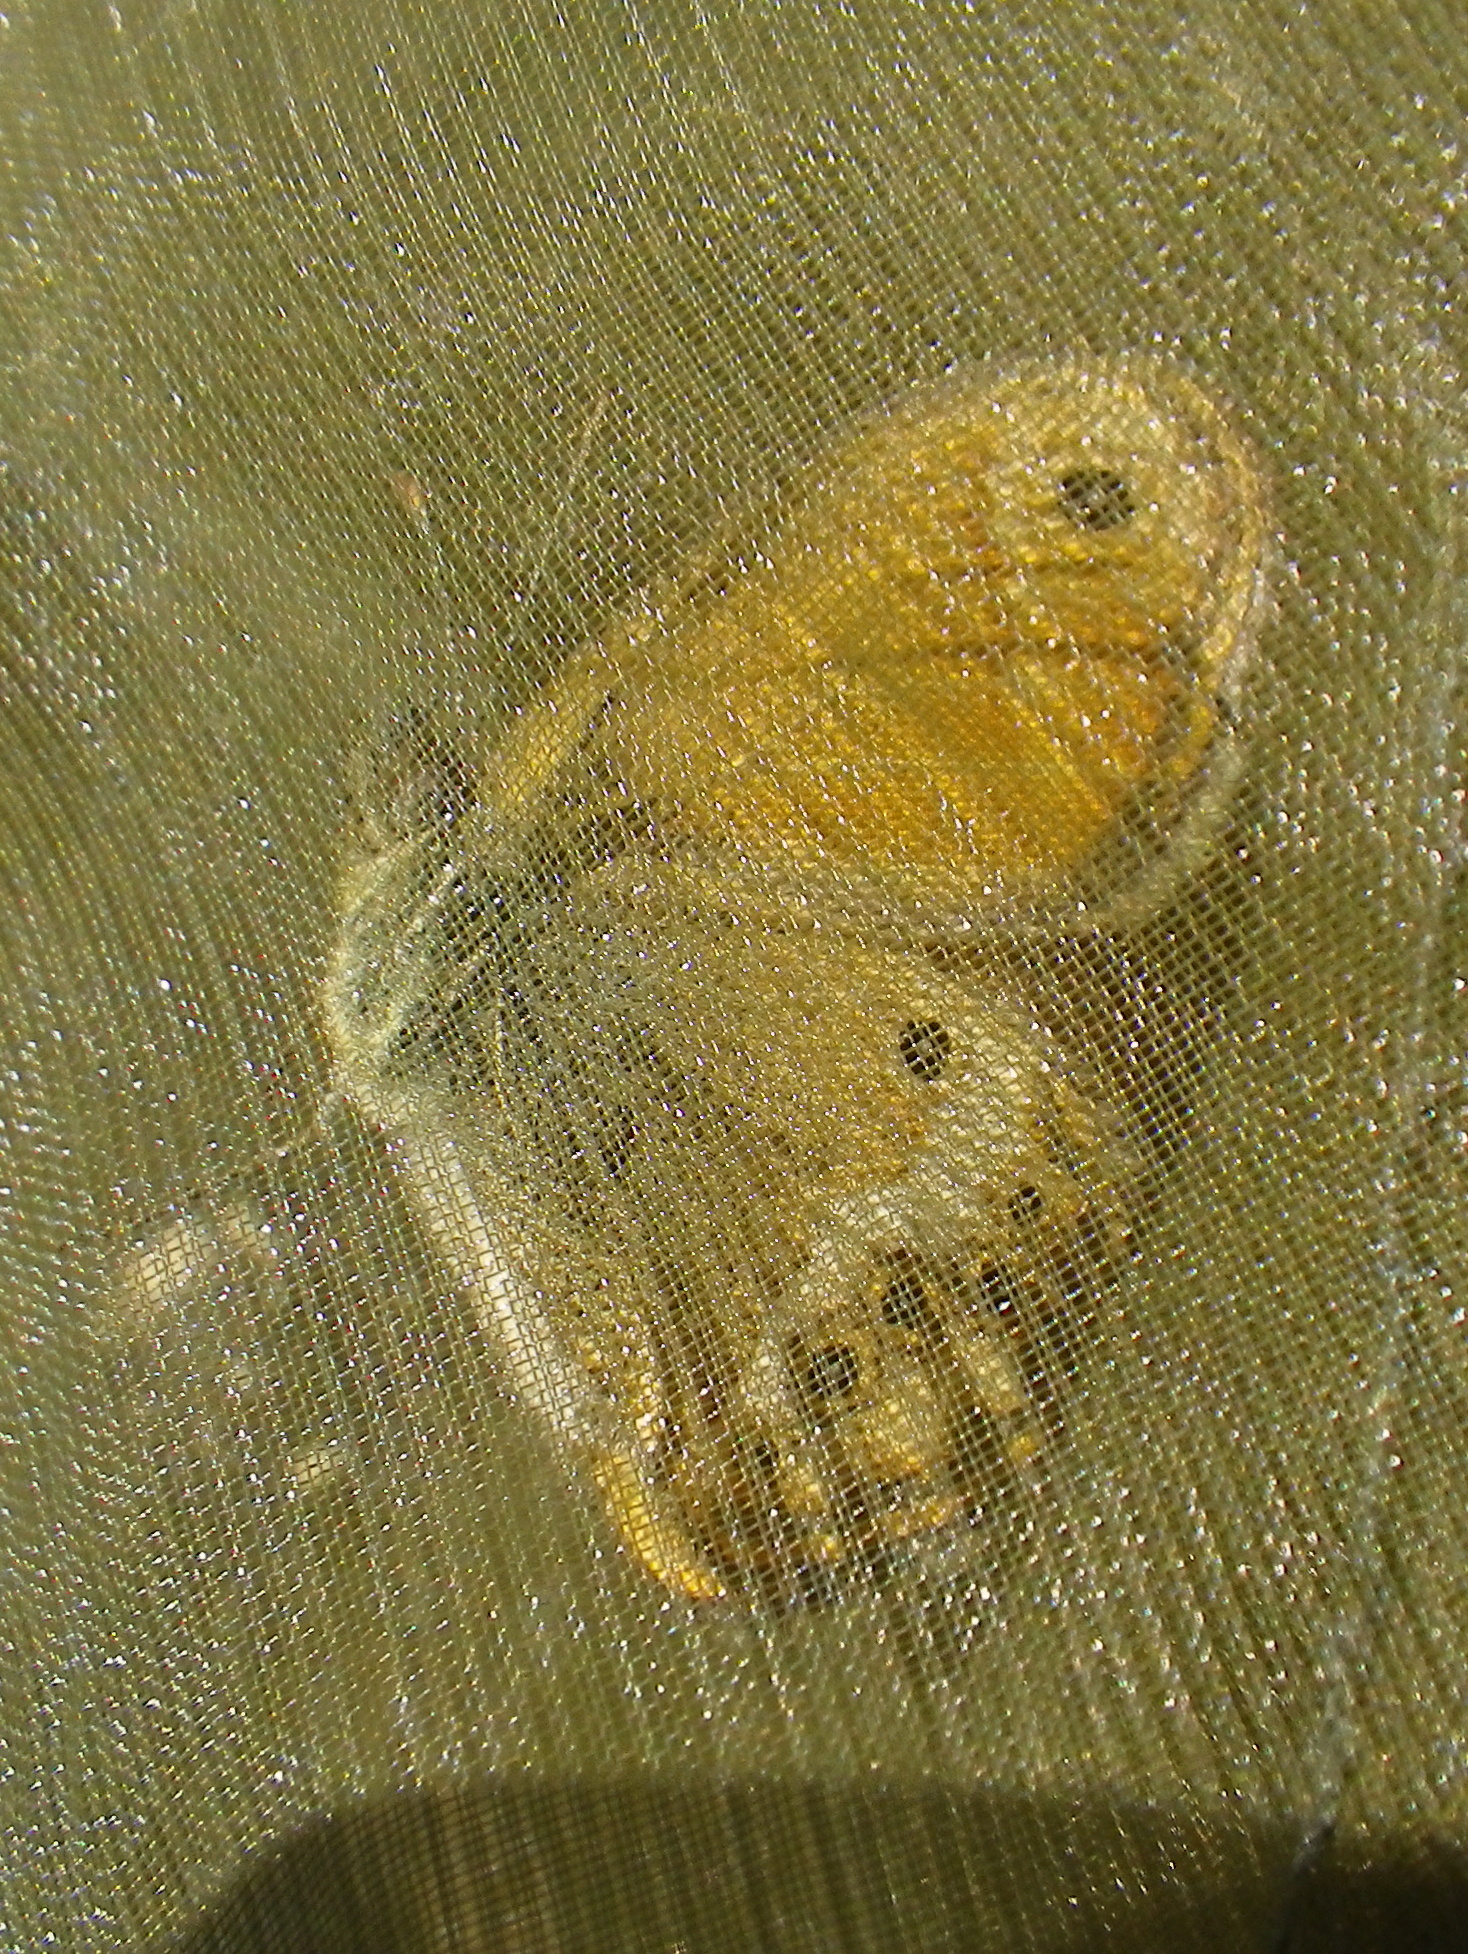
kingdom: Animalia
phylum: Arthropoda
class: Insecta
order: Lepidoptera
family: Nymphalidae
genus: Coenonympha
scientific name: Coenonympha dorus
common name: Dusky heath
